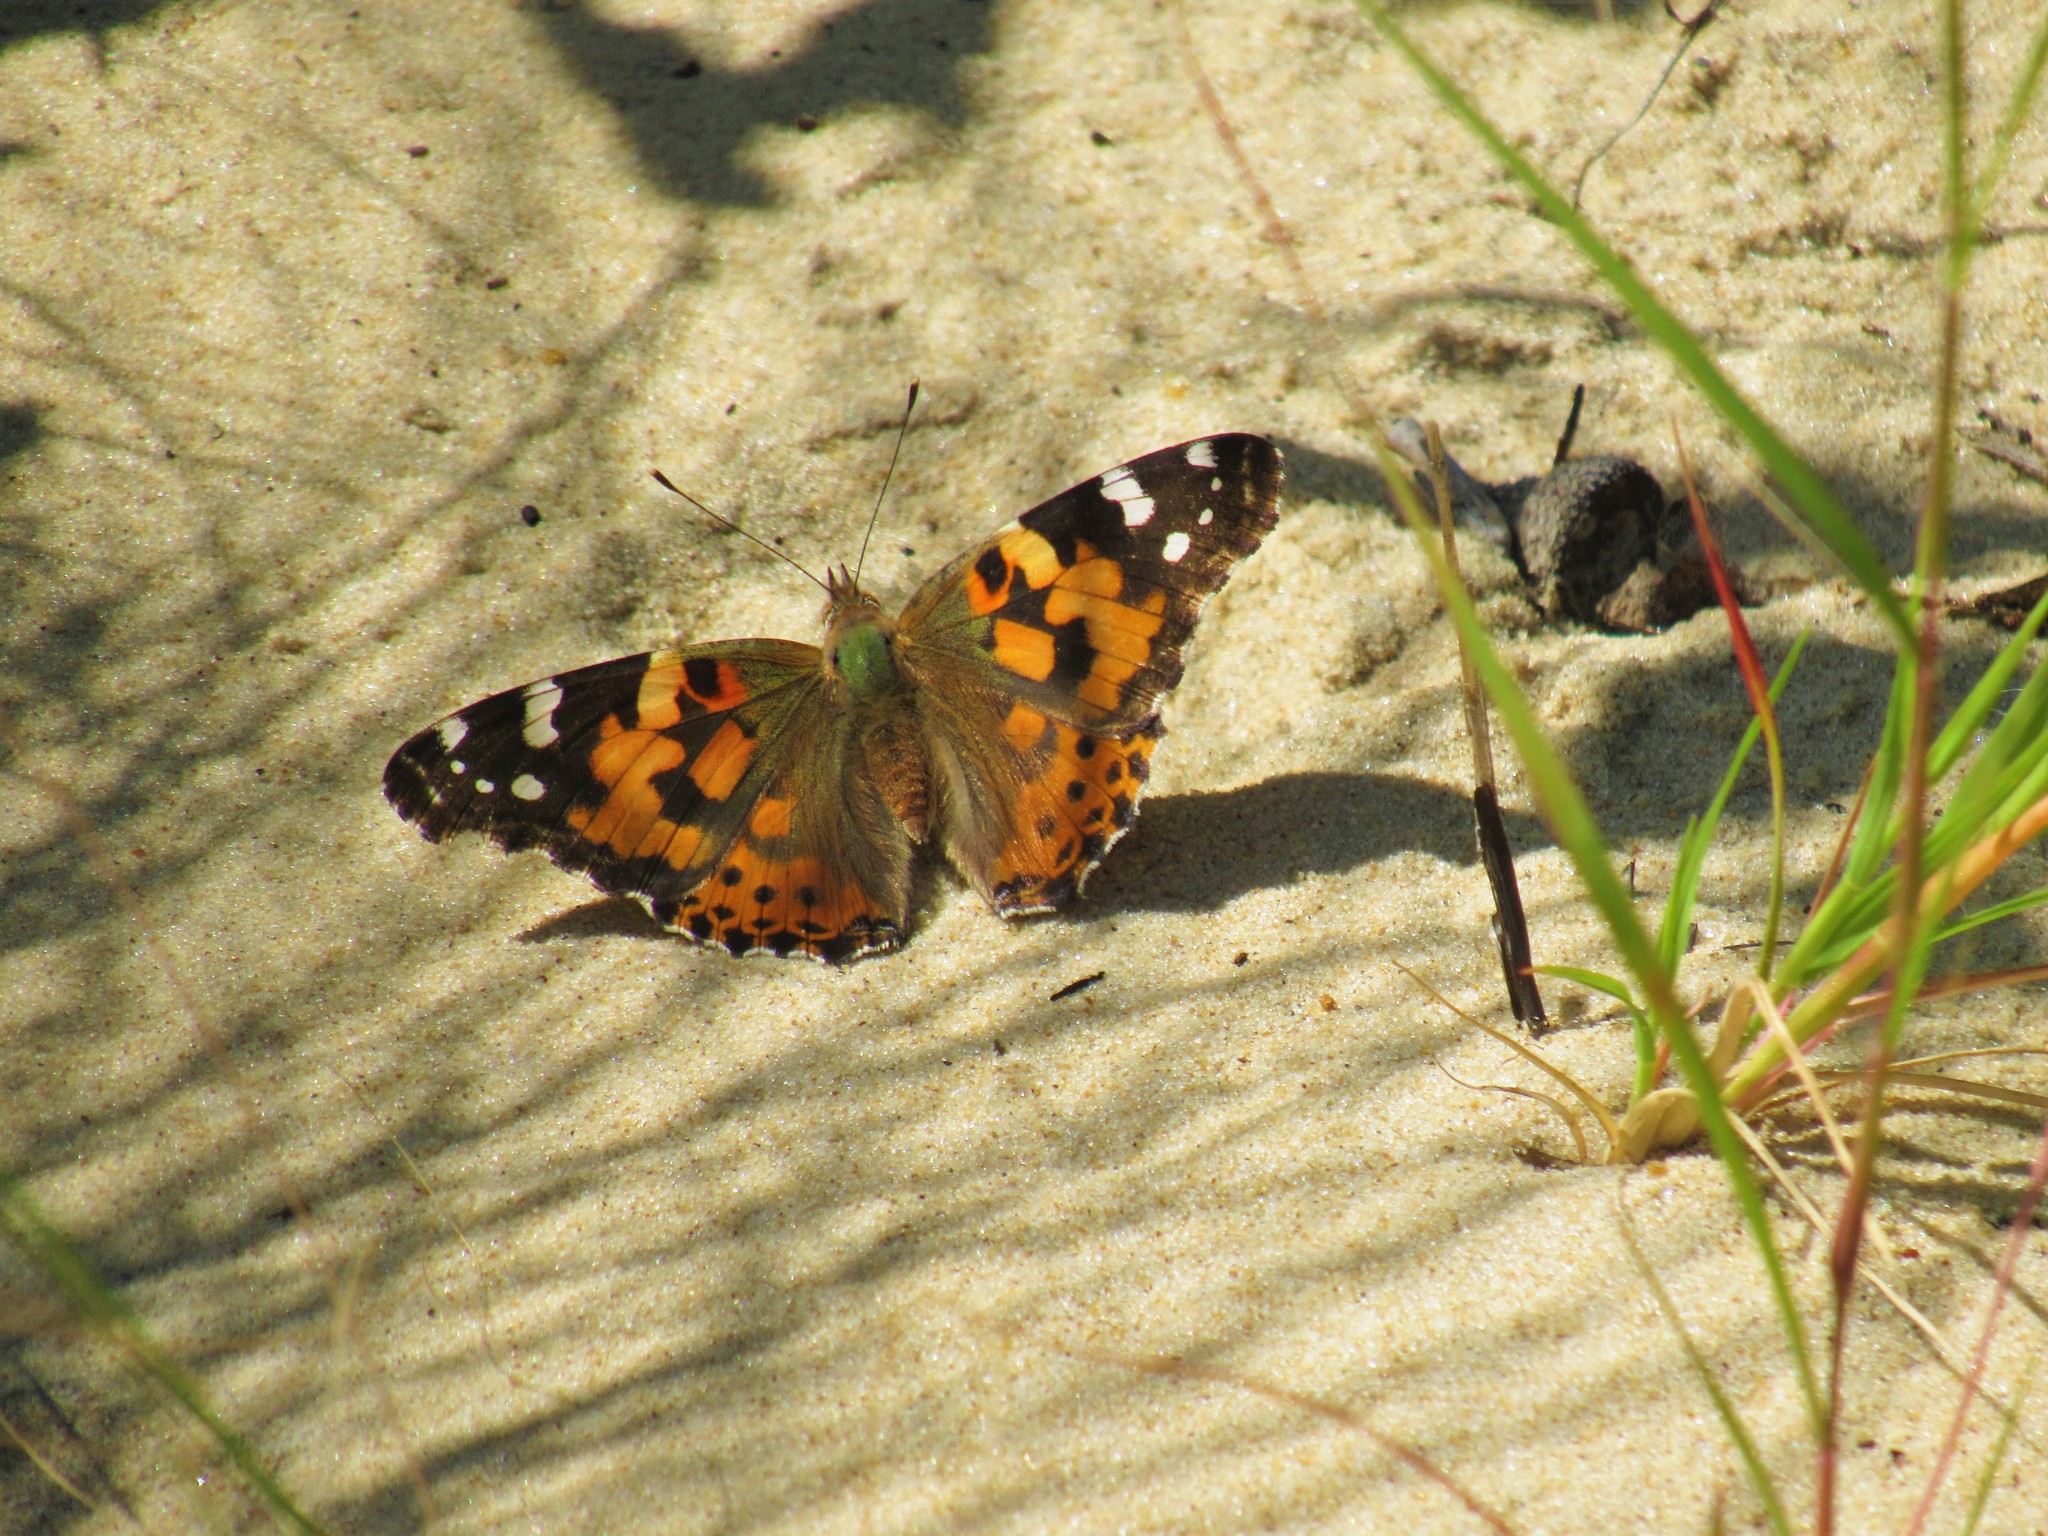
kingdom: Animalia
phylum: Arthropoda
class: Insecta
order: Lepidoptera
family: Nymphalidae
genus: Vanessa
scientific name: Vanessa cardui
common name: Painted lady
